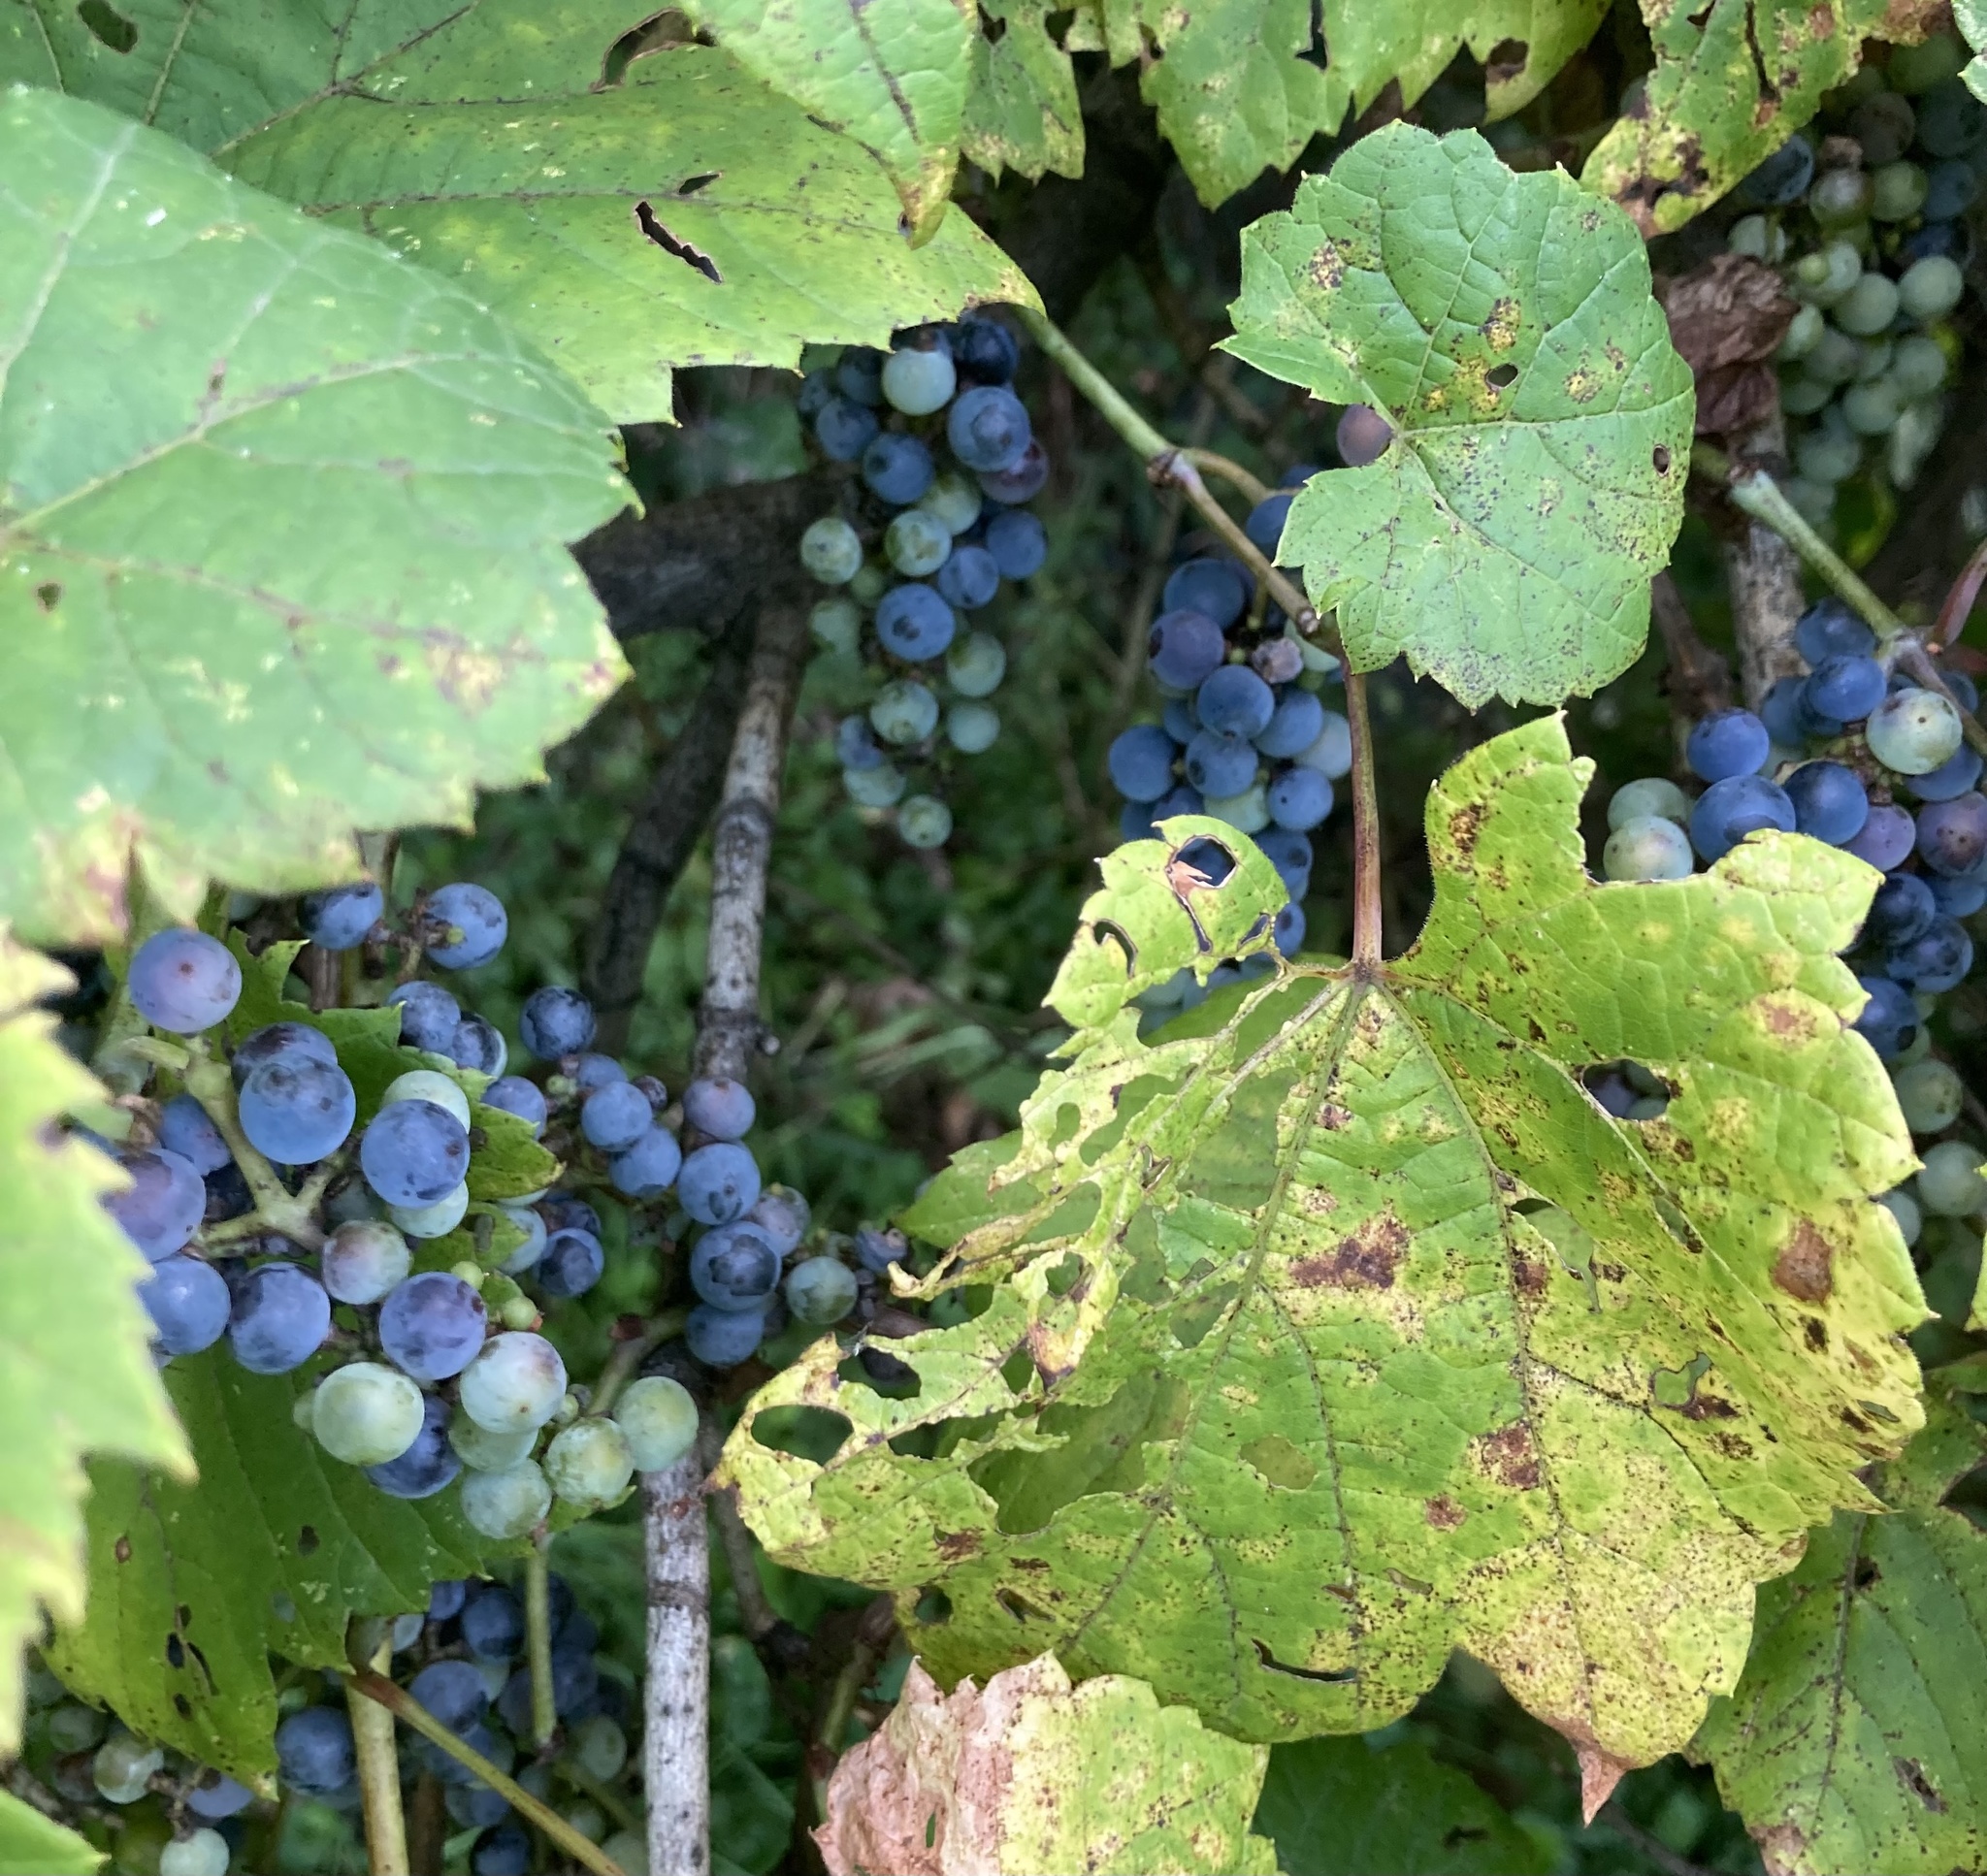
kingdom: Plantae
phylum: Tracheophyta
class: Magnoliopsida
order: Vitales
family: Vitaceae
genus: Vitis
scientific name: Vitis riparia
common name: Frost grape
